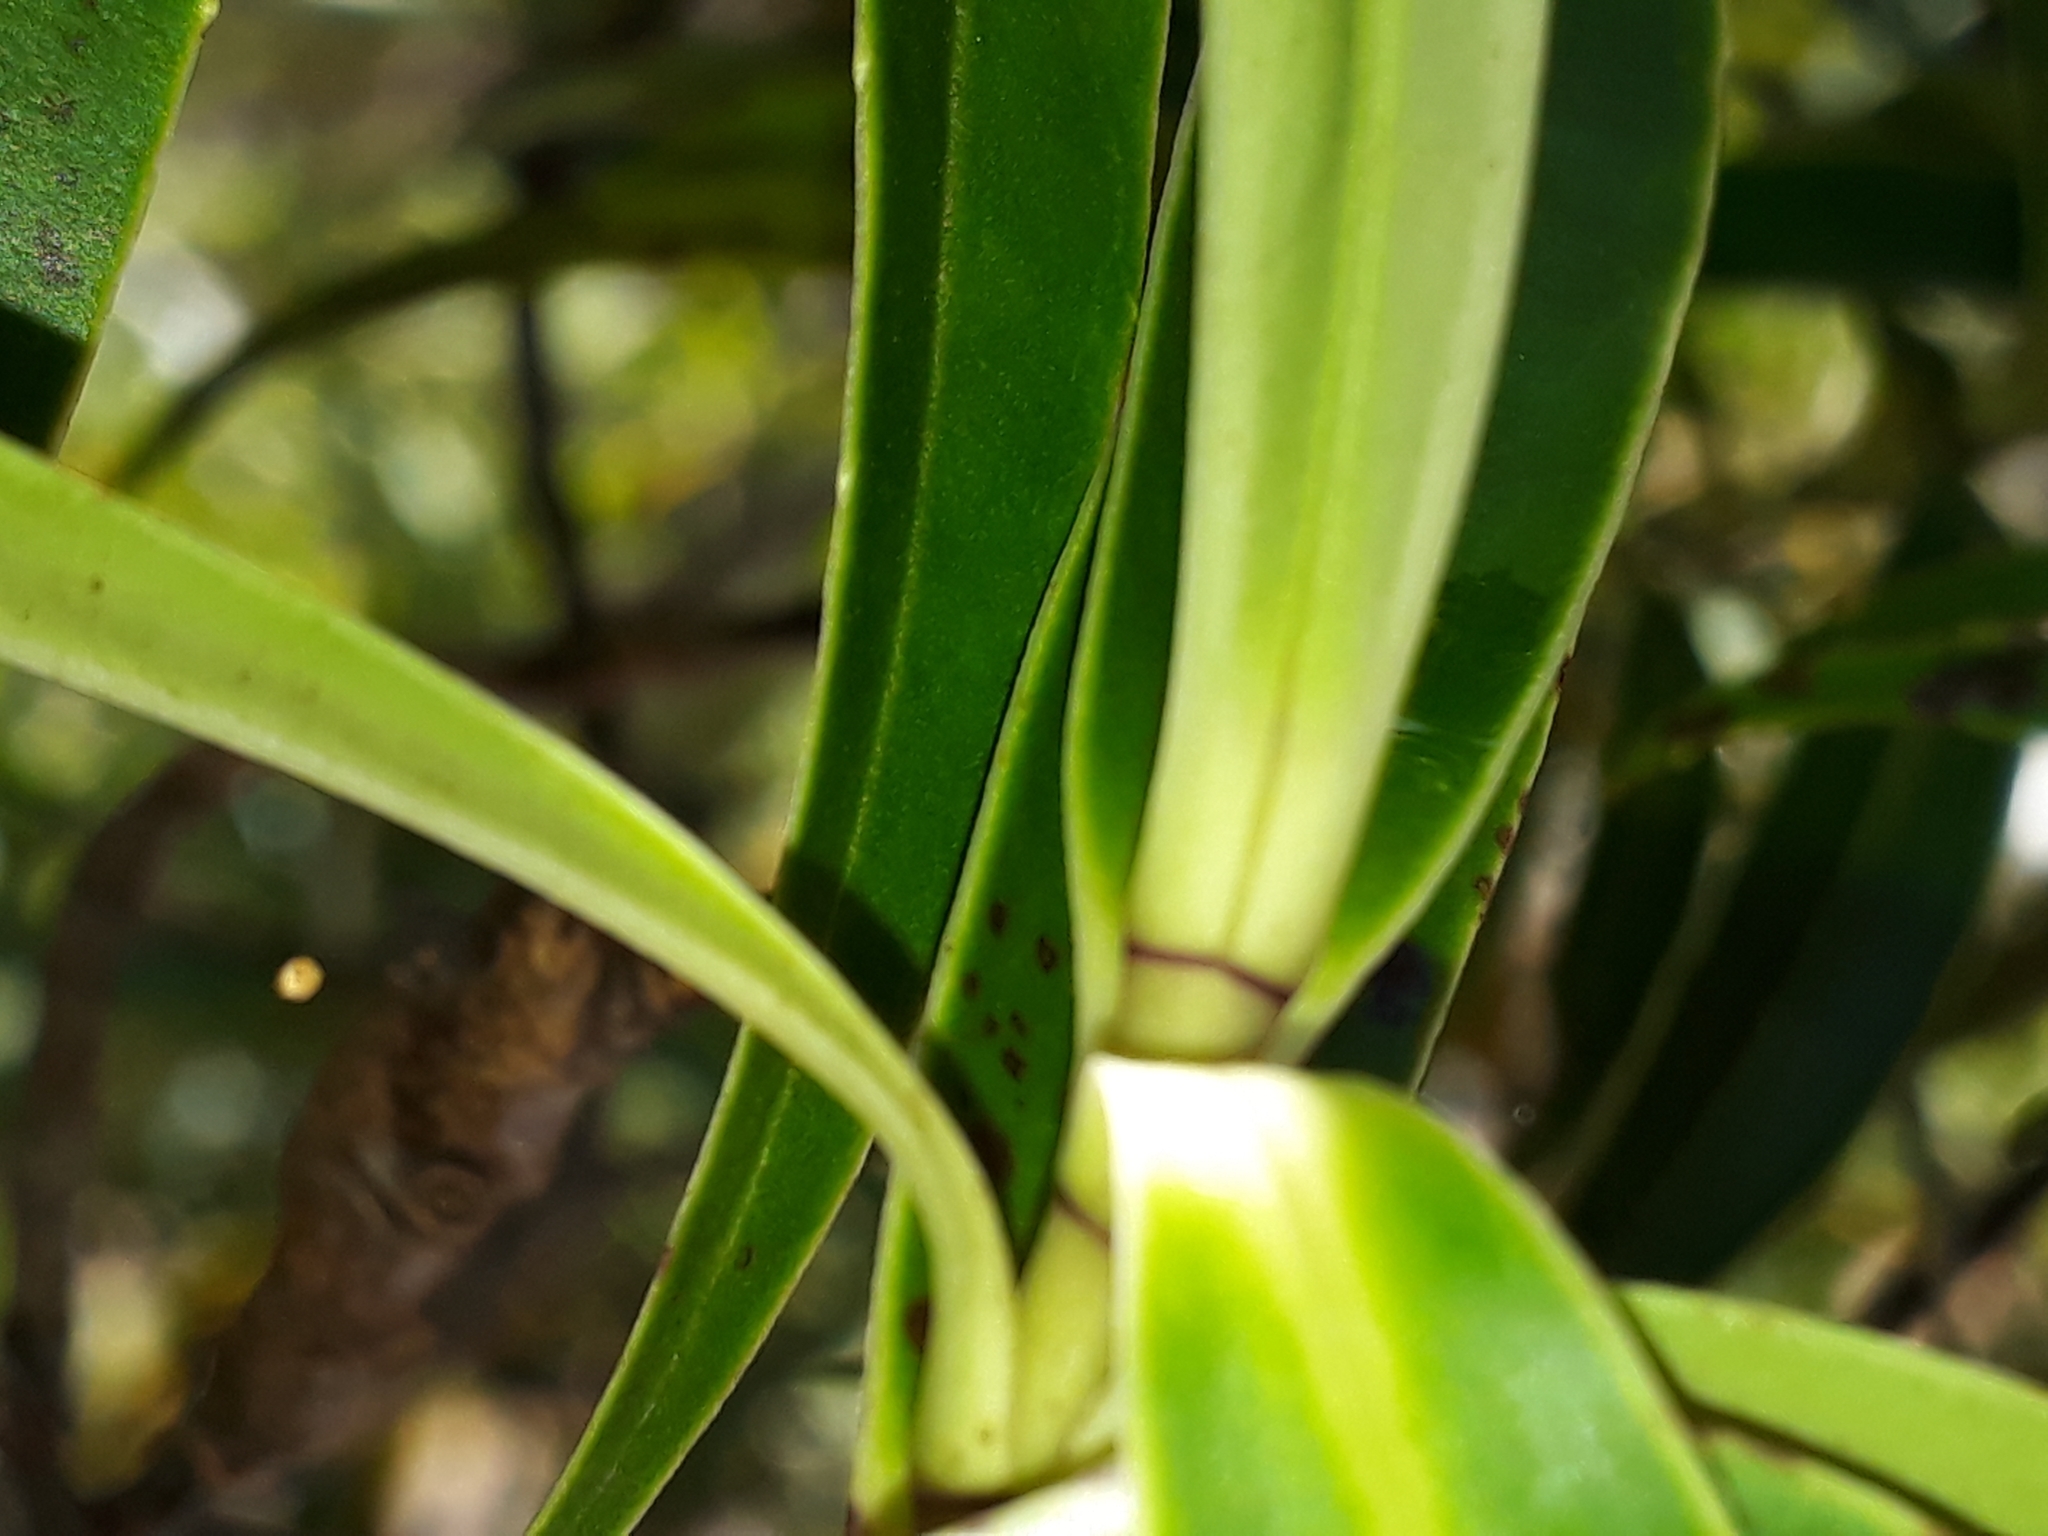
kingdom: Plantae
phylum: Tracheophyta
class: Magnoliopsida
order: Lamiales
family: Plantaginaceae
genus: Veronica
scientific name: Veronica stricta
